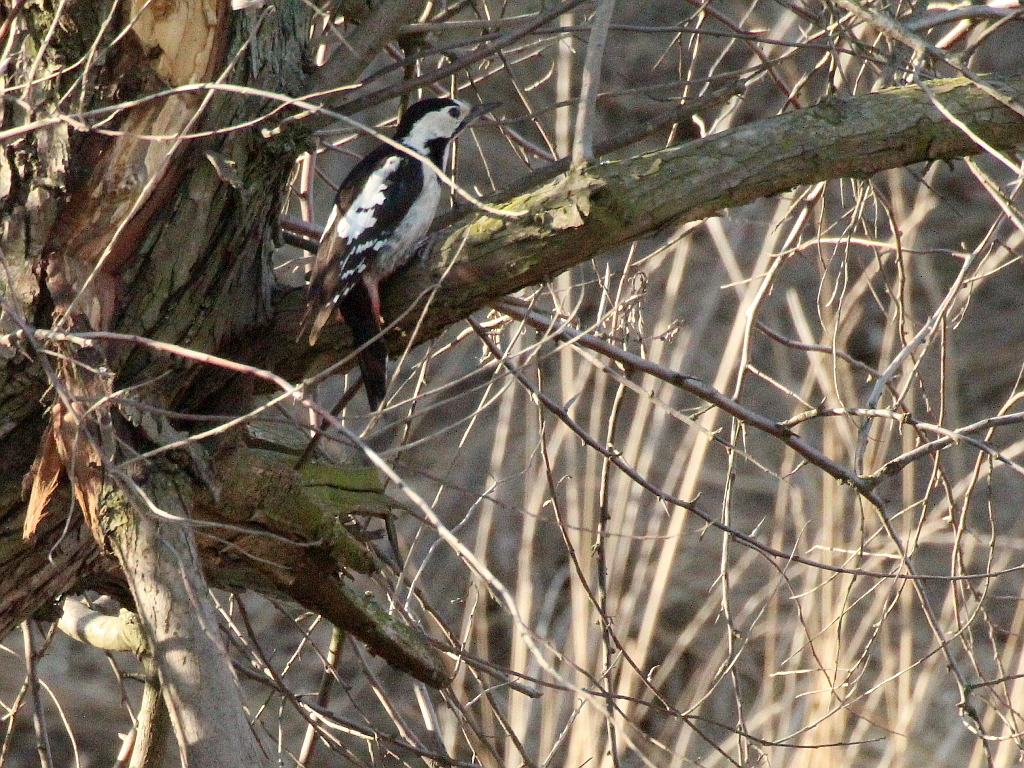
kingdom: Animalia
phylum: Chordata
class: Aves
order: Piciformes
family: Picidae
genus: Dendrocopos
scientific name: Dendrocopos syriacus
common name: Syrian woodpecker
